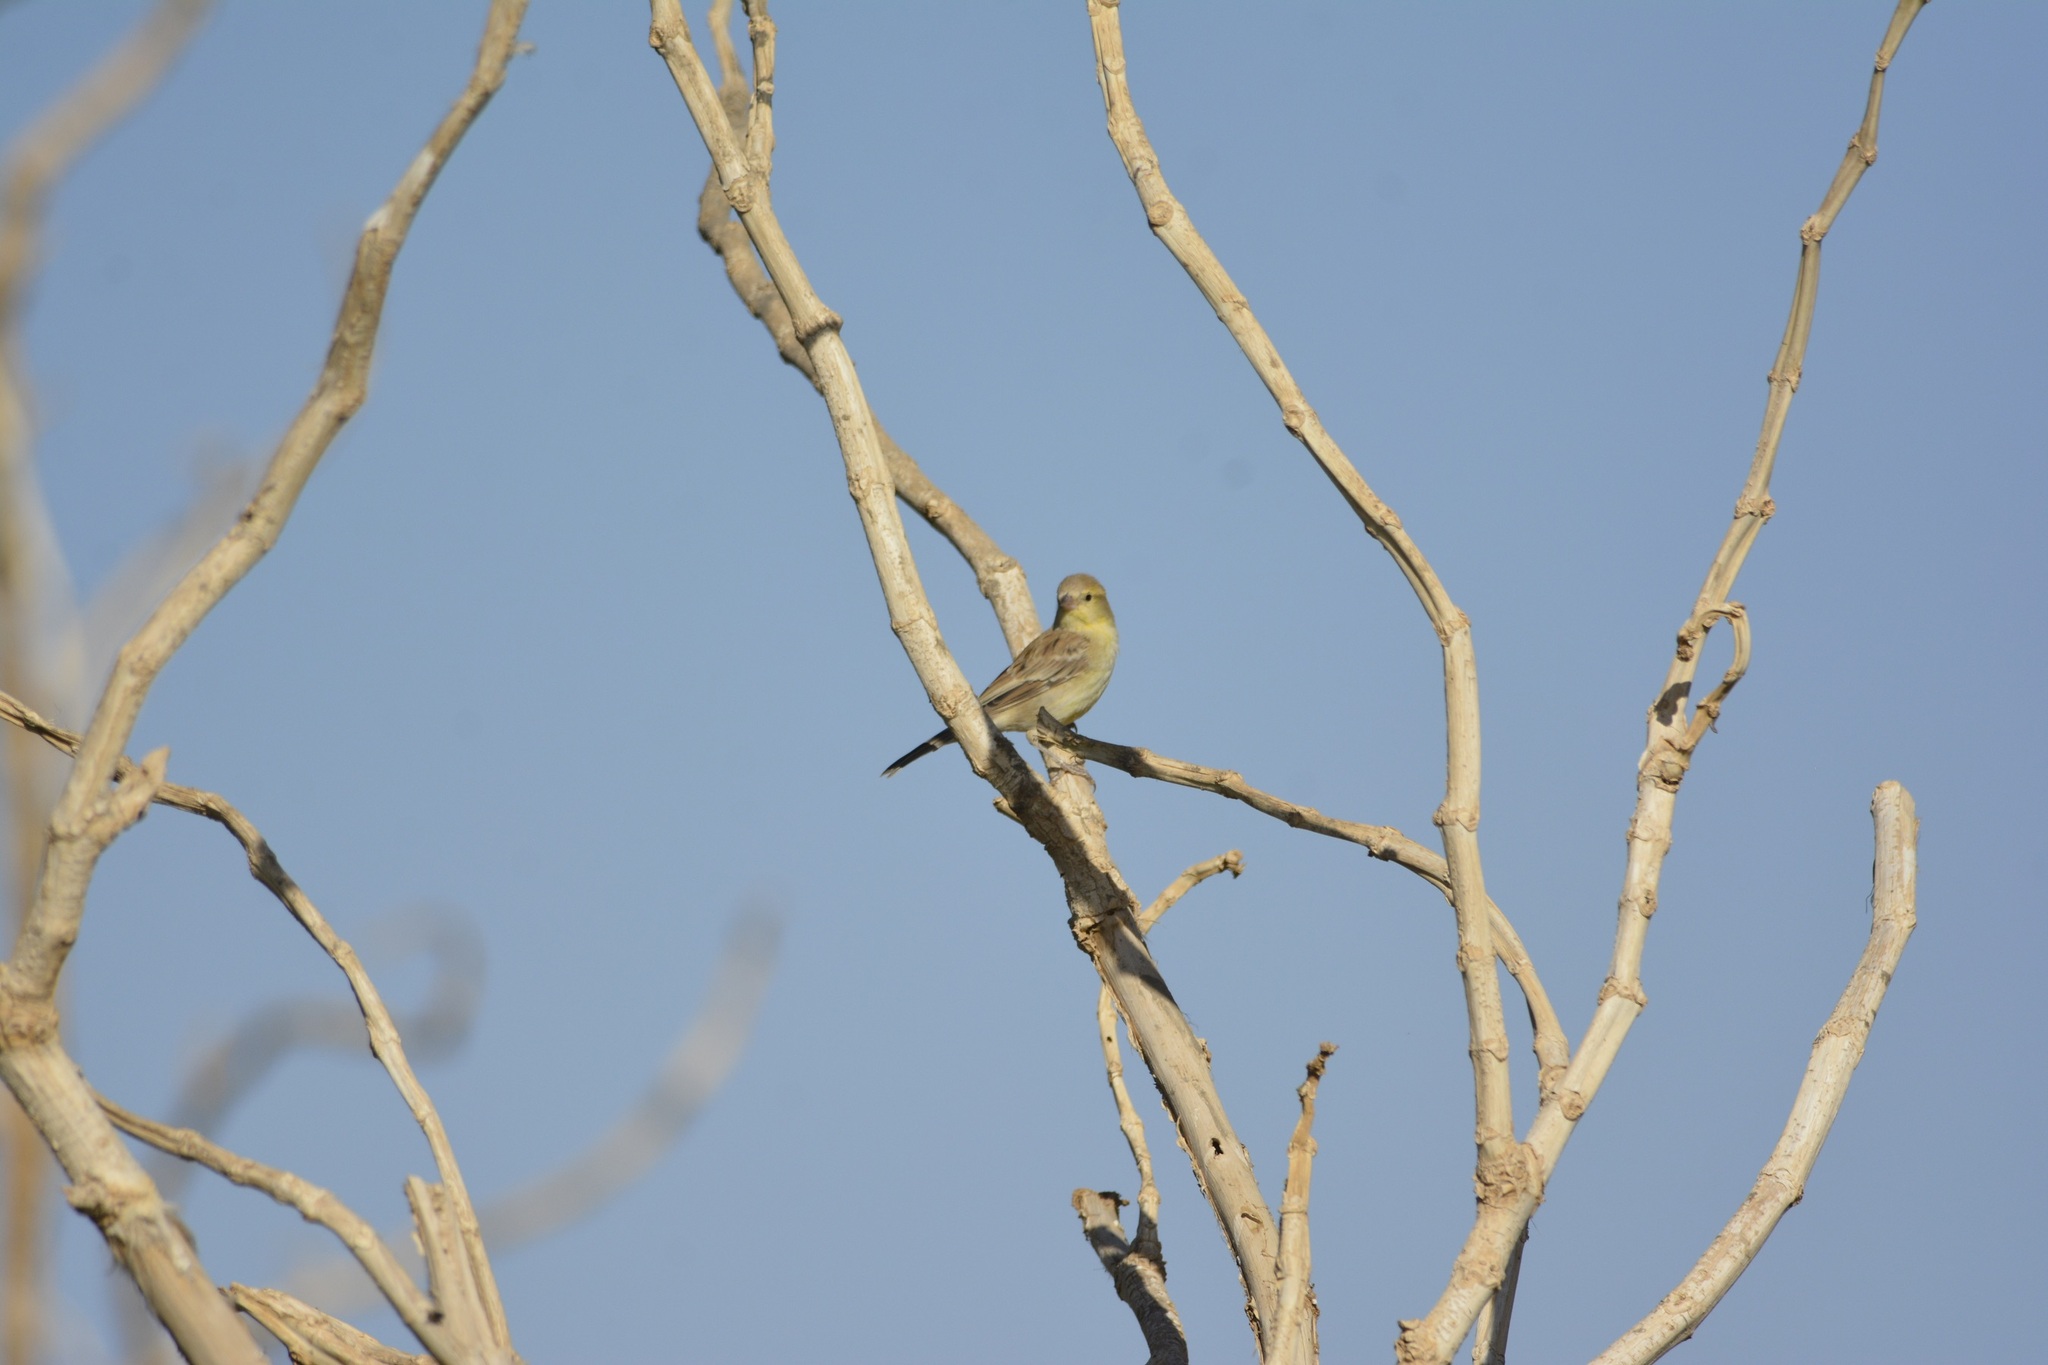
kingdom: Animalia
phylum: Chordata
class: Aves
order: Passeriformes
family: Passeridae
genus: Passer
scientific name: Passer luteus
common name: Sudan golden sparrow
